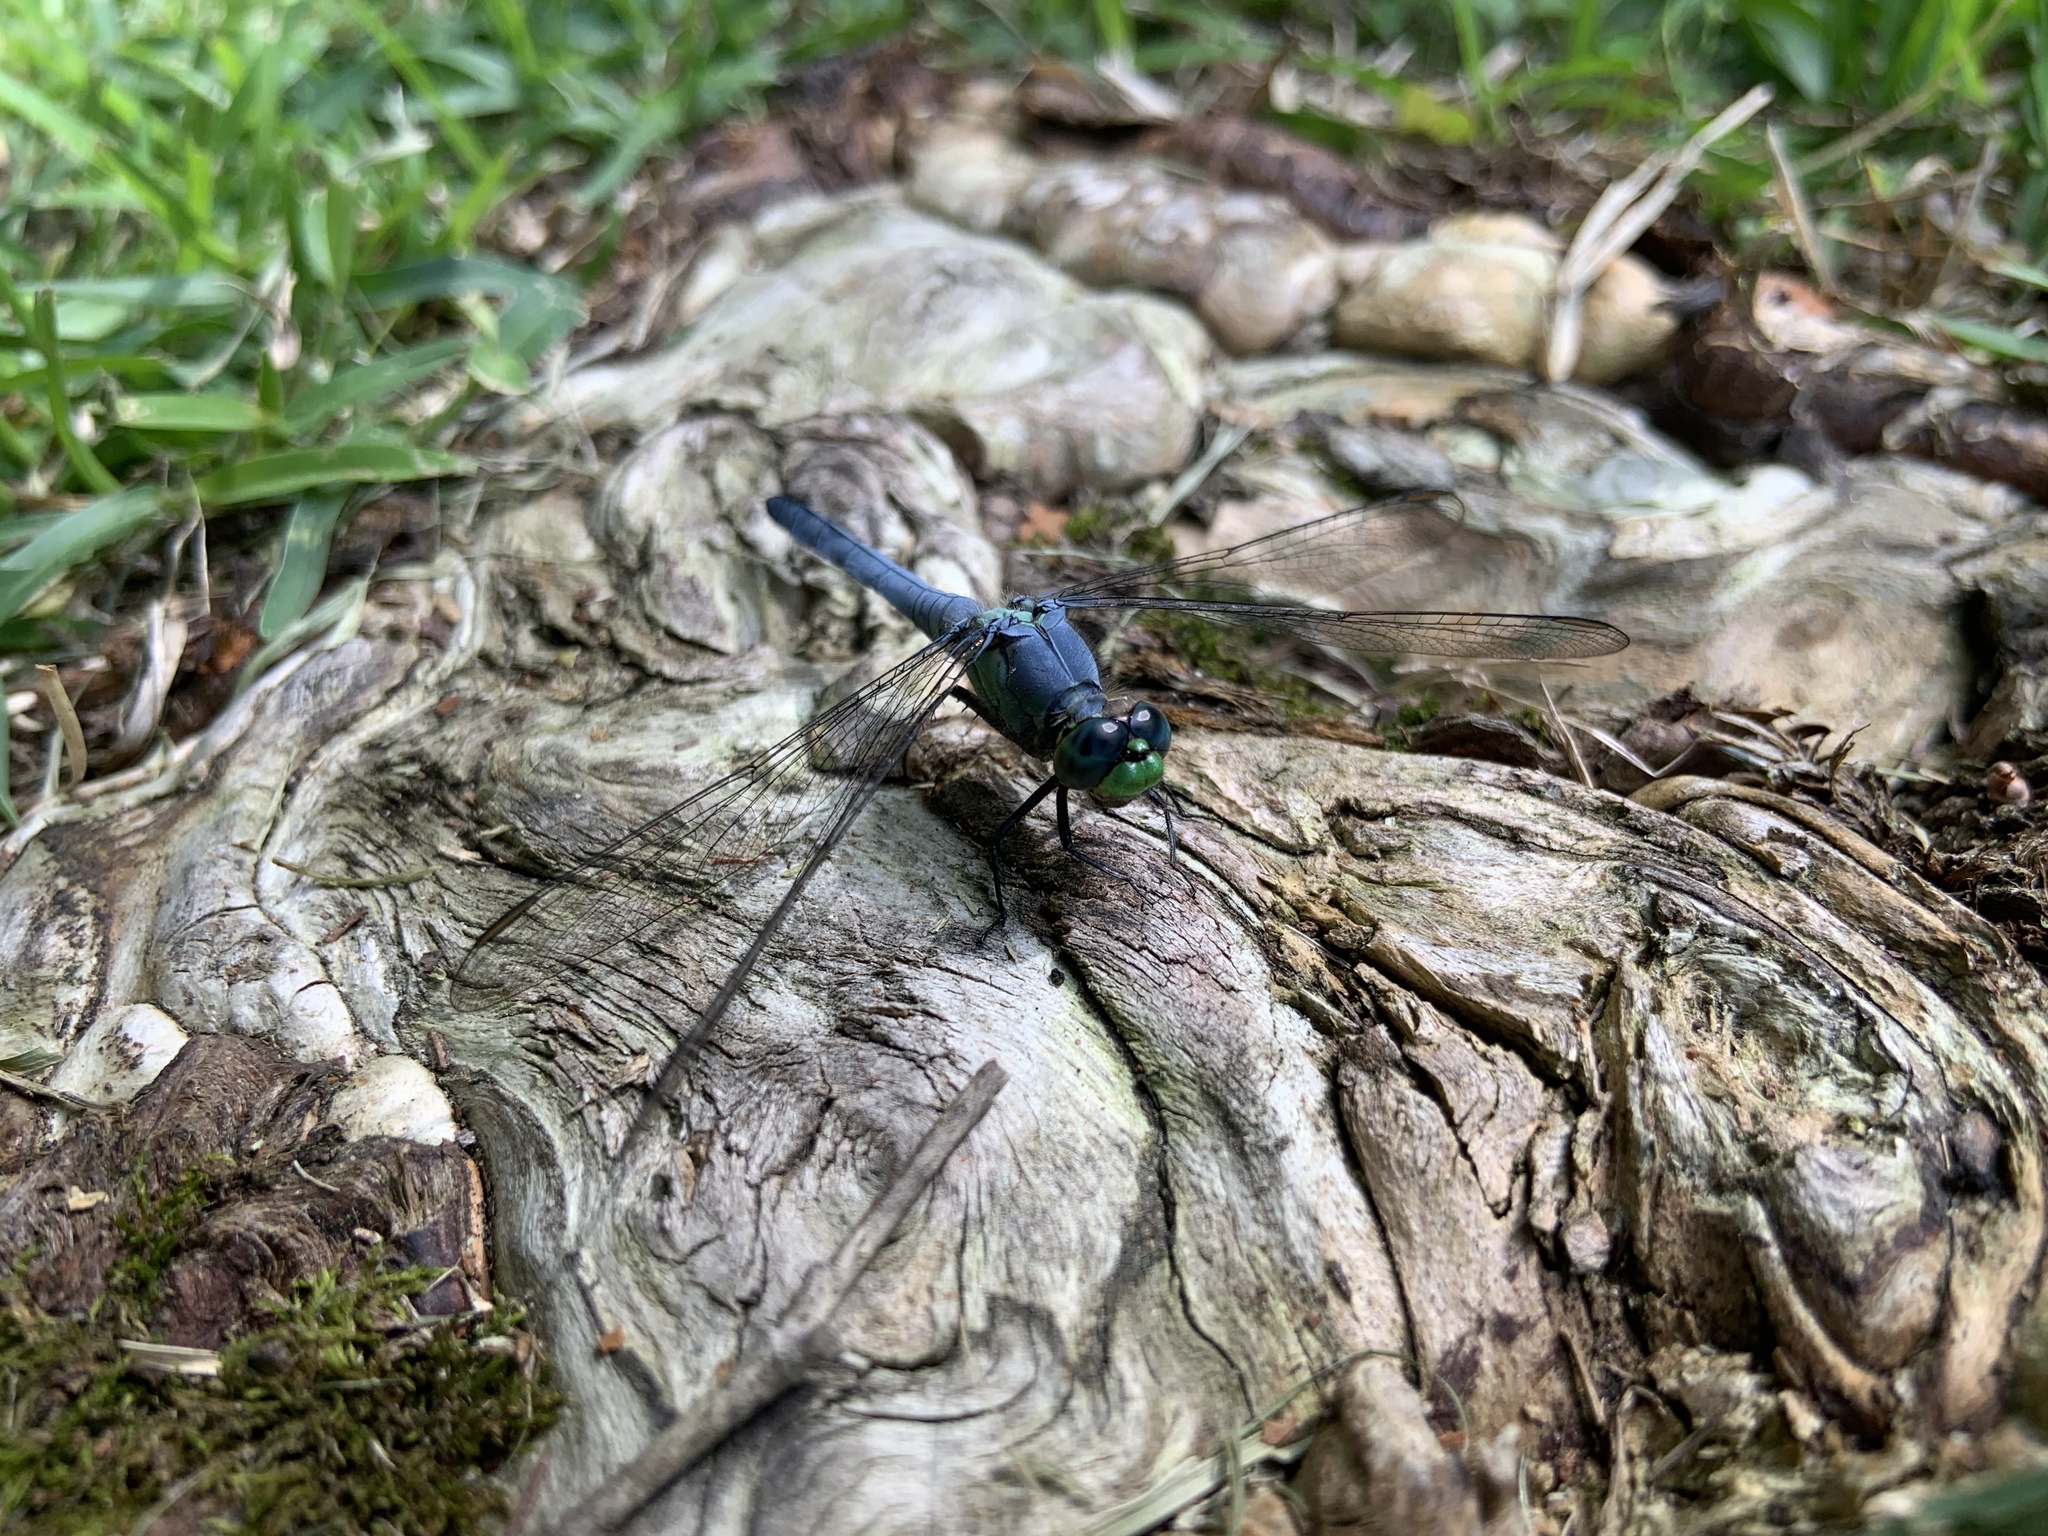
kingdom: Animalia
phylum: Arthropoda
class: Insecta
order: Odonata
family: Libellulidae
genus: Erythemis
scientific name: Erythemis simplicicollis
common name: Eastern pondhawk
